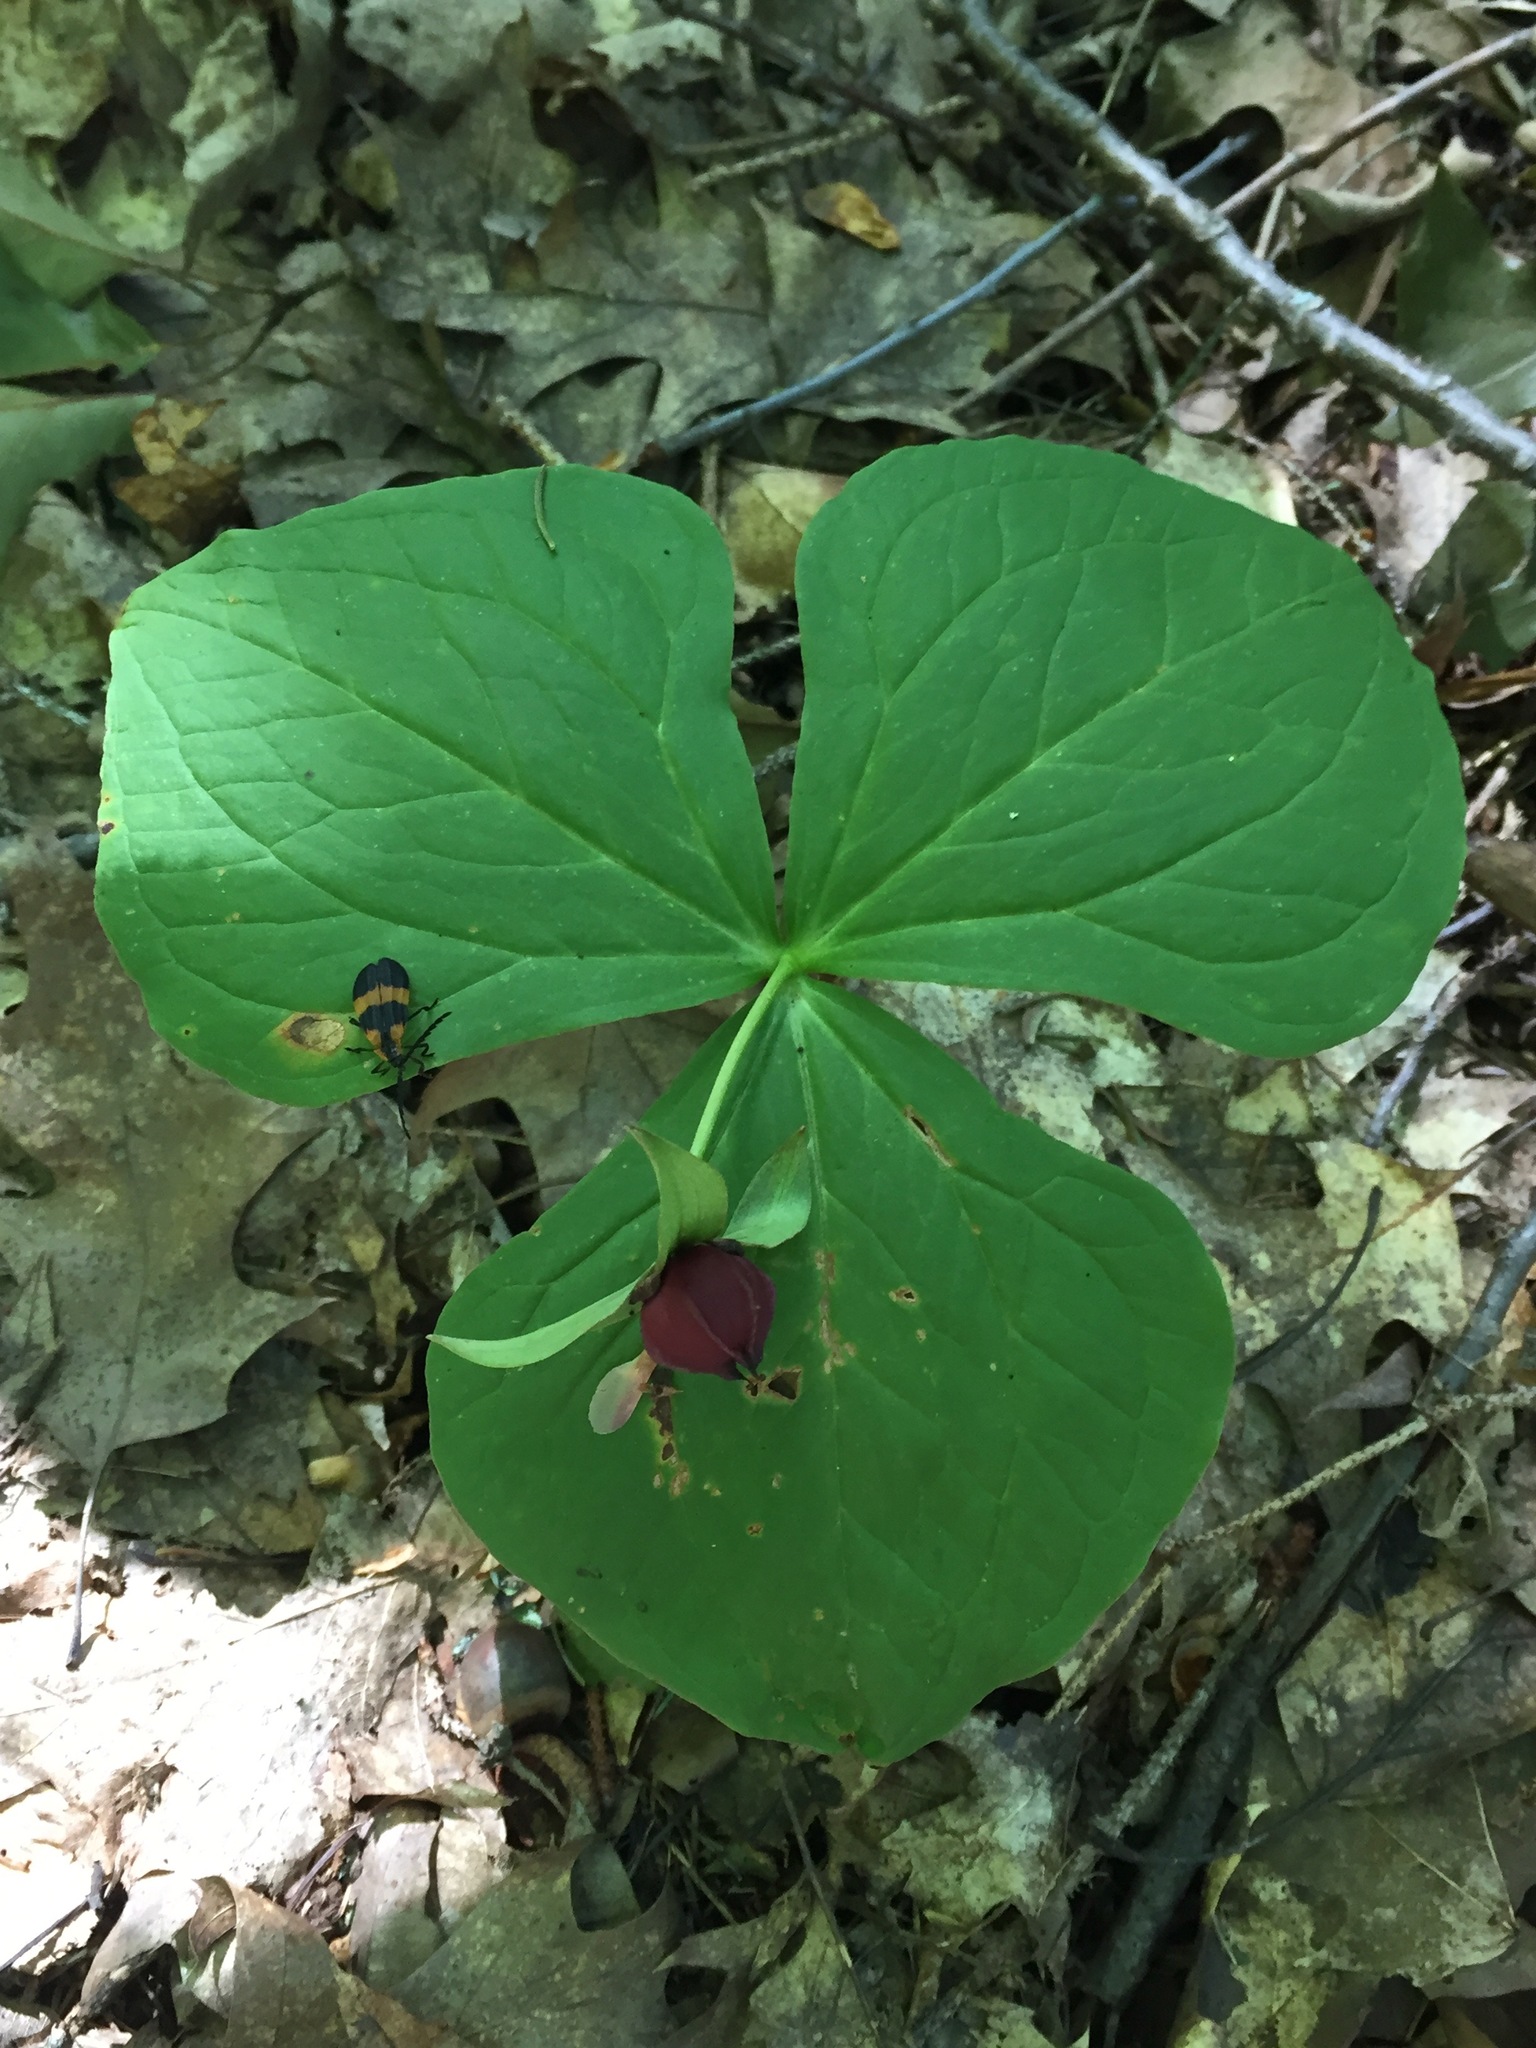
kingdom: Plantae
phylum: Tracheophyta
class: Liliopsida
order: Liliales
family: Melanthiaceae
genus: Trillium
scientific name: Trillium erectum
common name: Purple trillium
